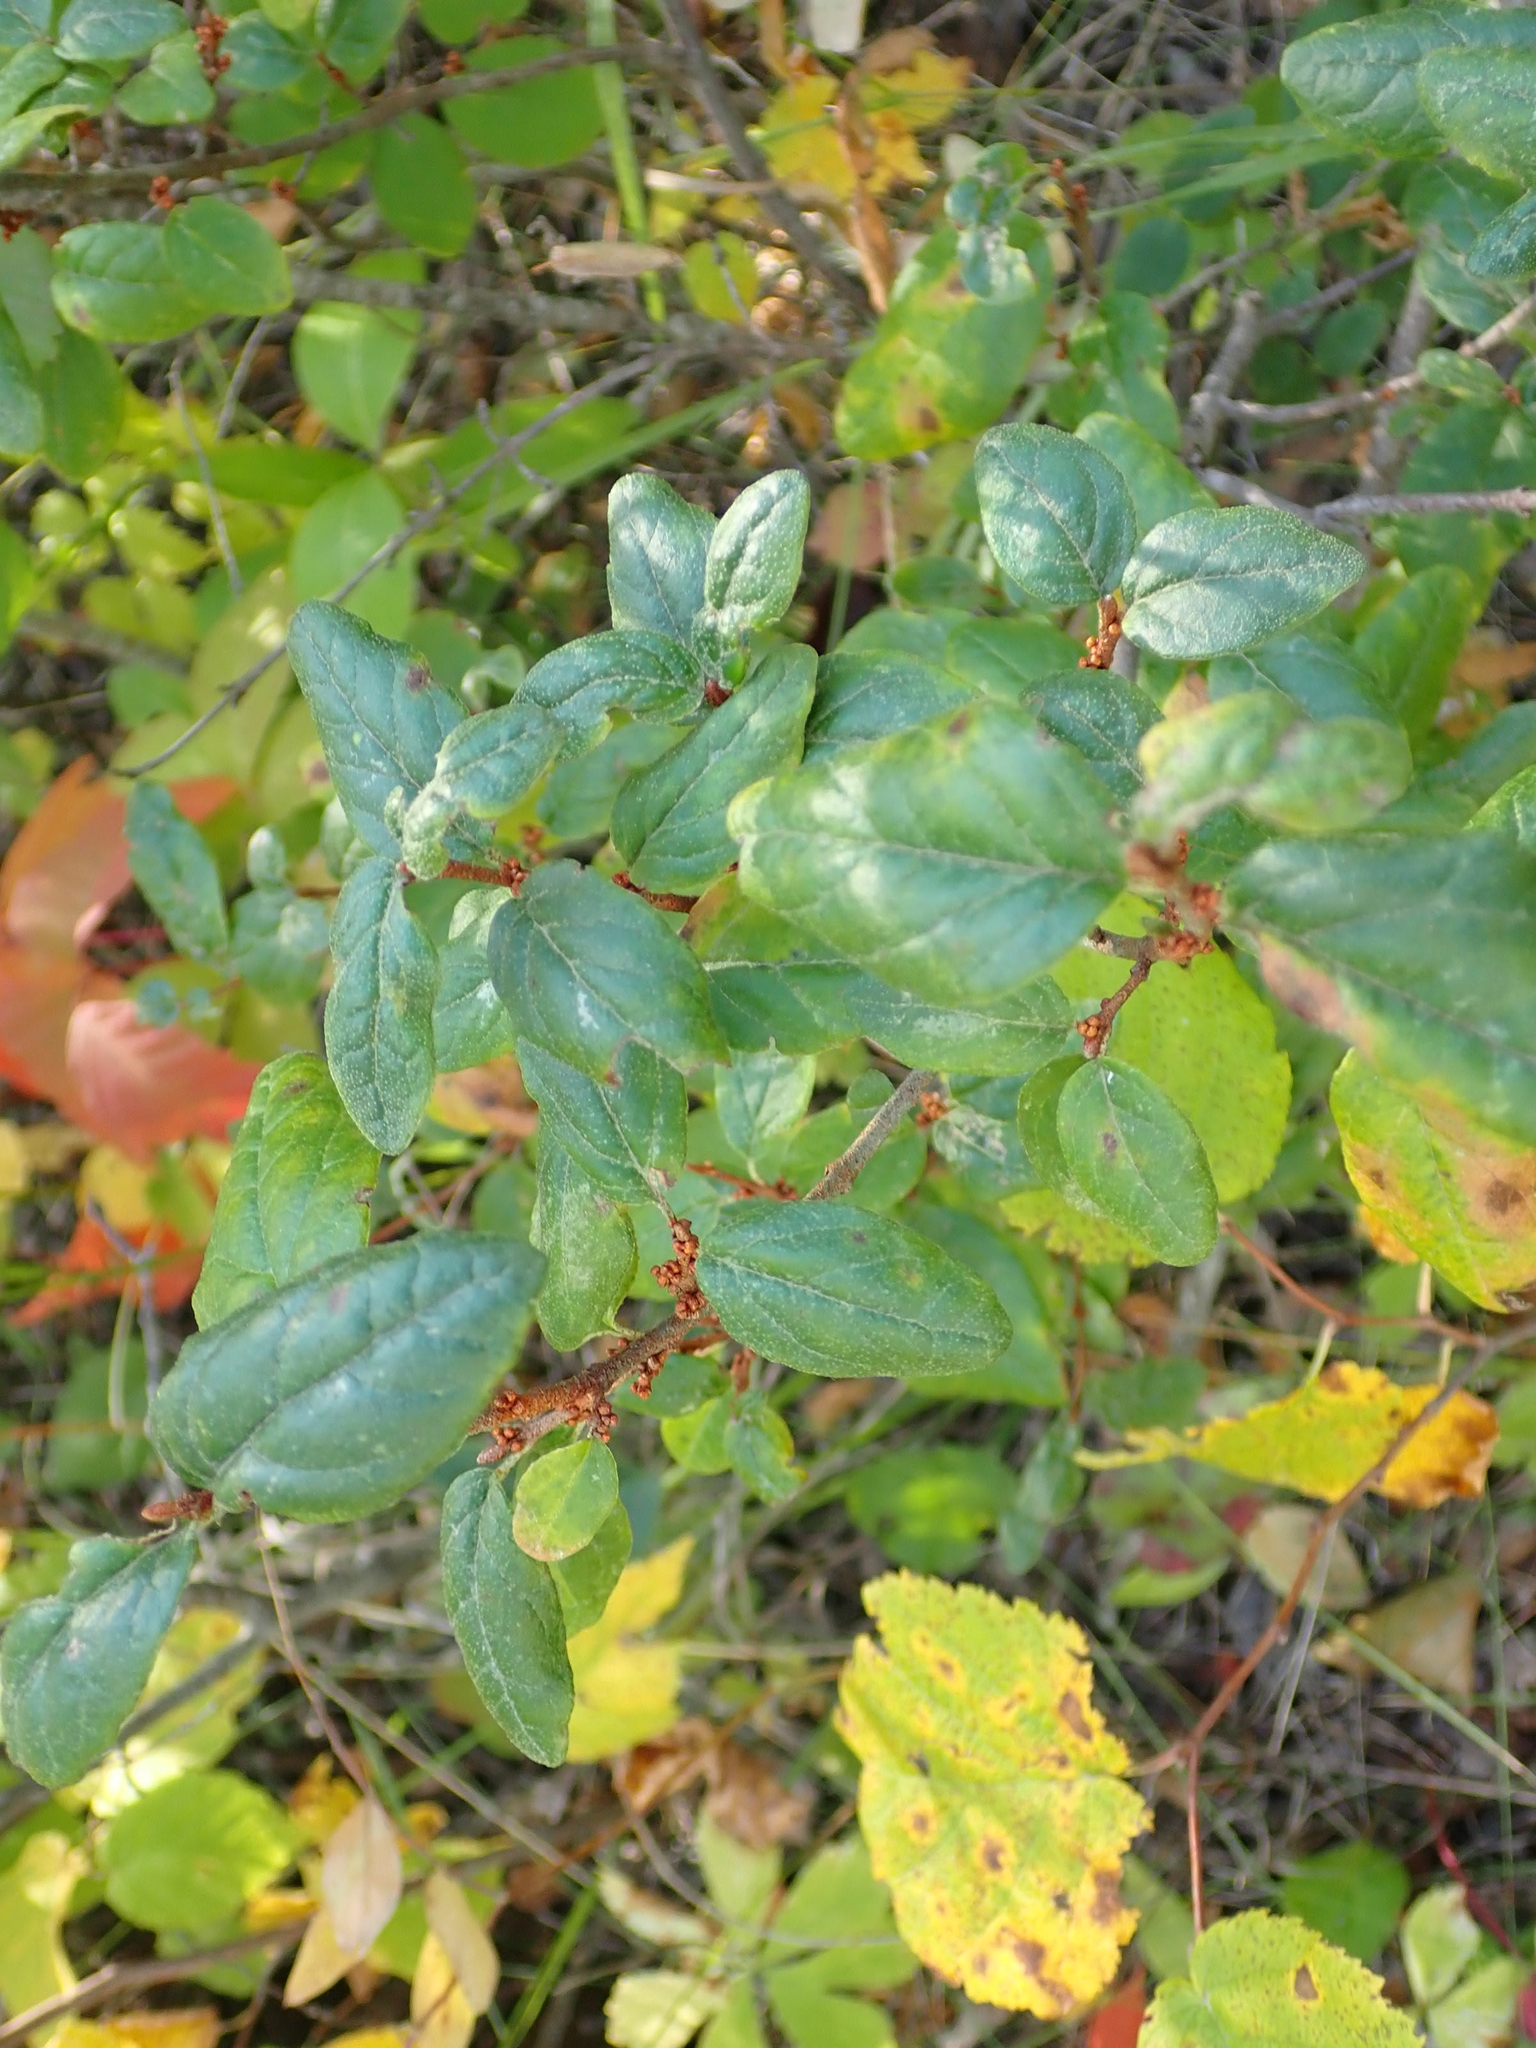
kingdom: Plantae
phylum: Tracheophyta
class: Magnoliopsida
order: Rosales
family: Elaeagnaceae
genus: Shepherdia
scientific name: Shepherdia canadensis
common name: Soapberry
